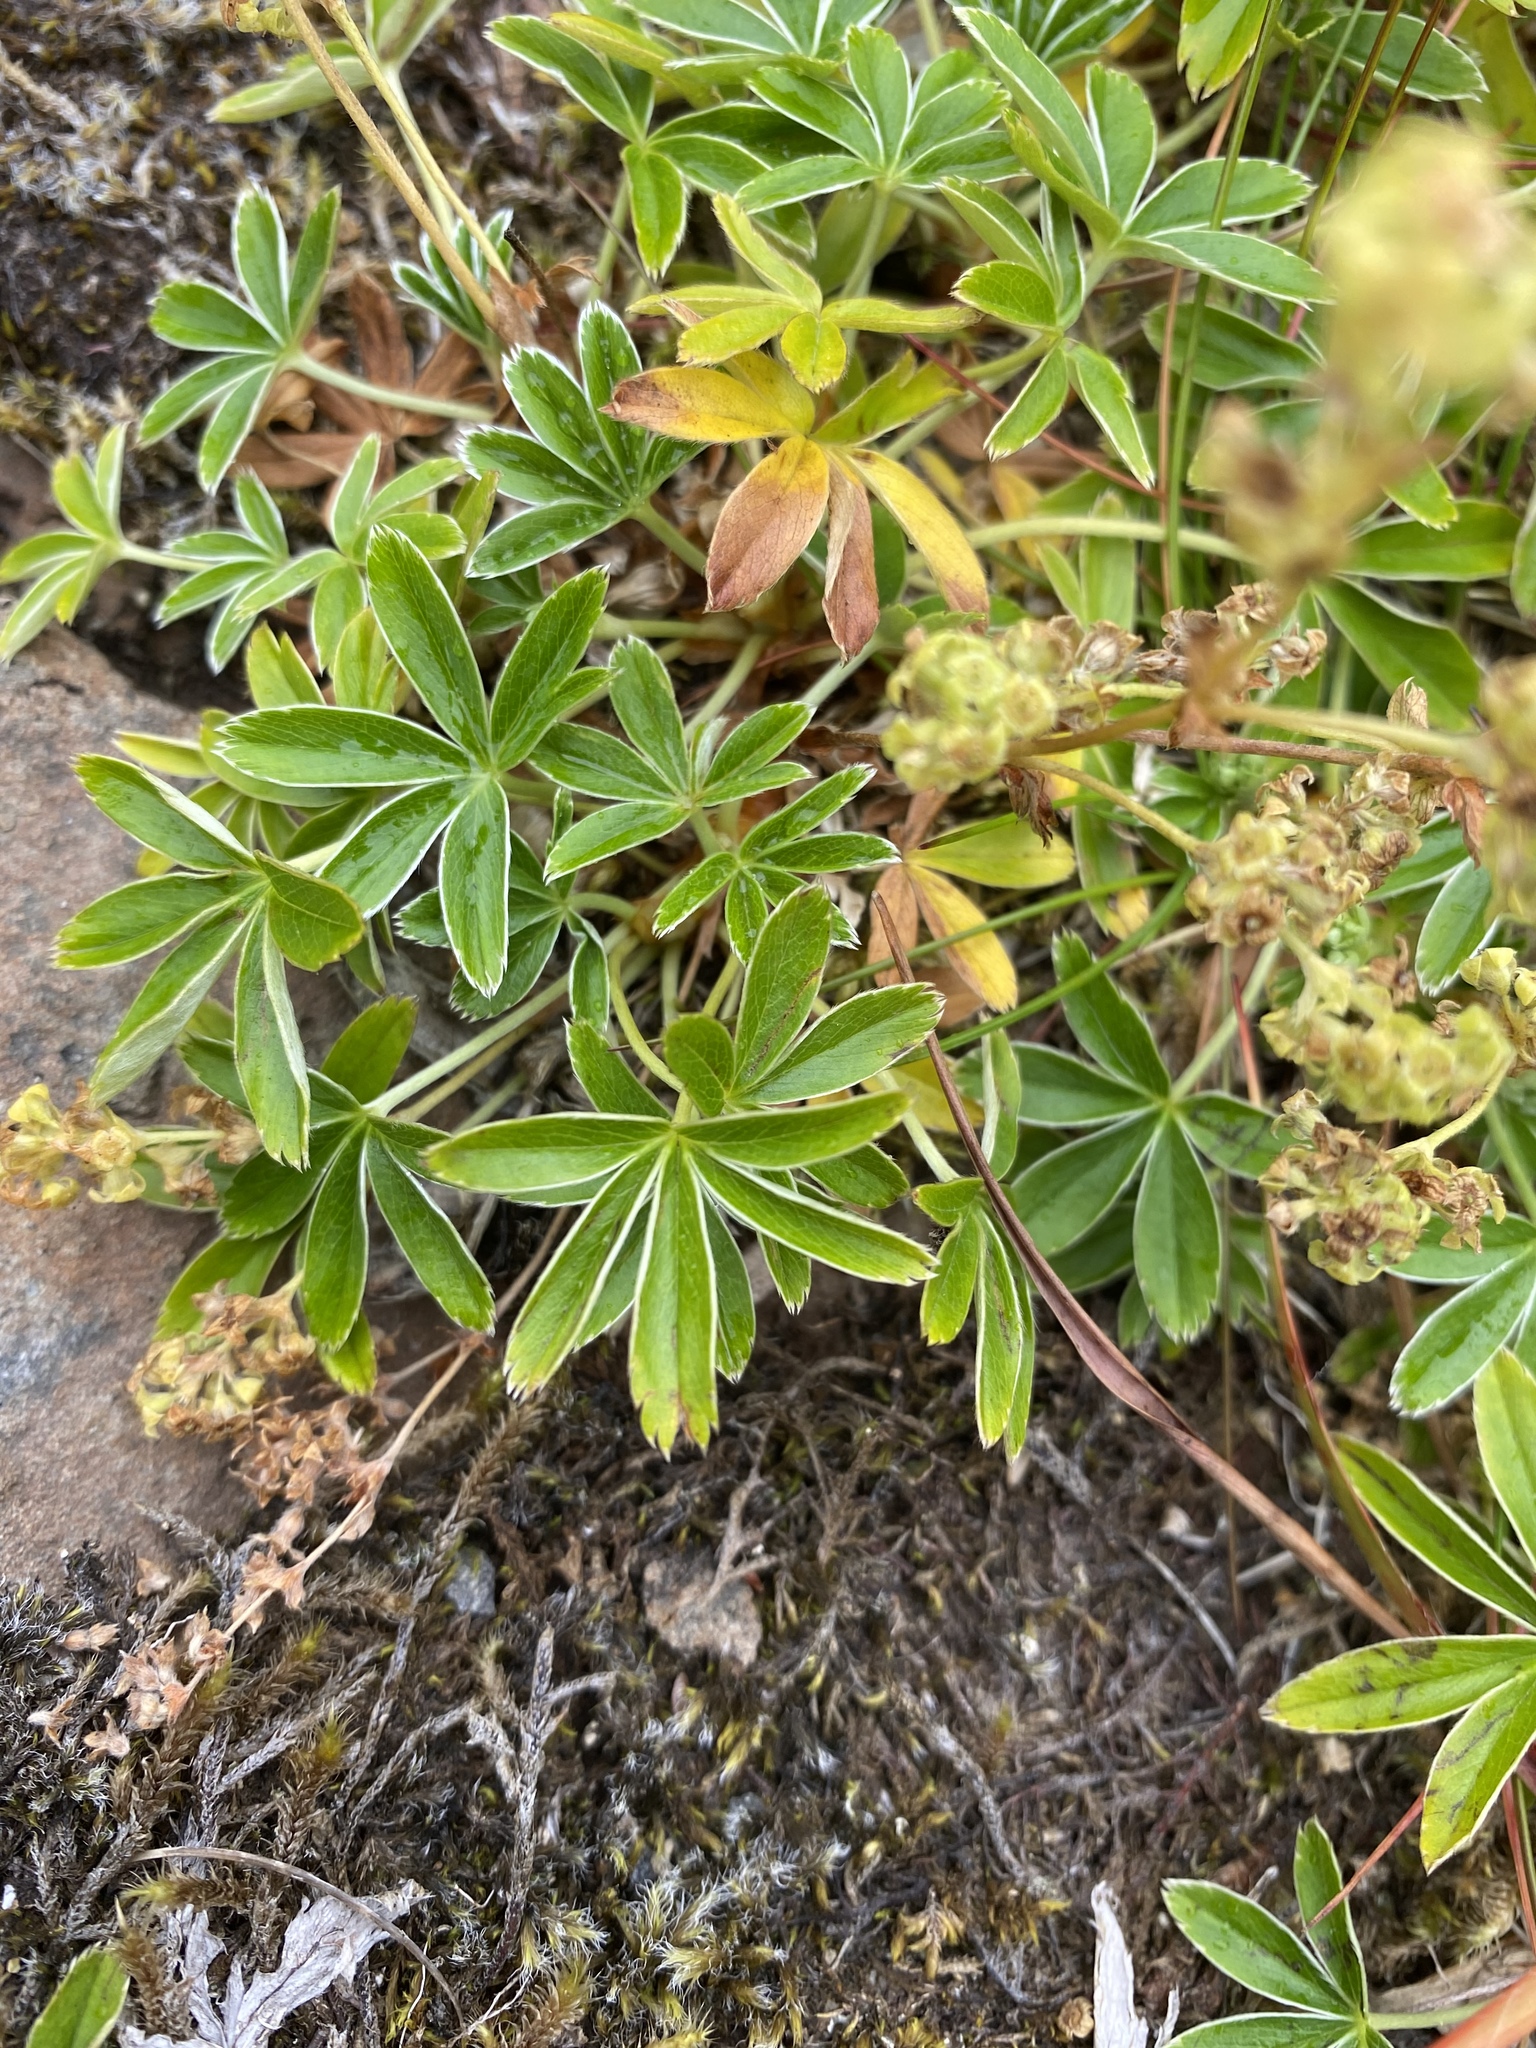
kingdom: Plantae
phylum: Tracheophyta
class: Magnoliopsida
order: Rosales
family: Rosaceae
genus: Alchemilla
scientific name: Alchemilla alpina
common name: Alpine lady's-mantle
